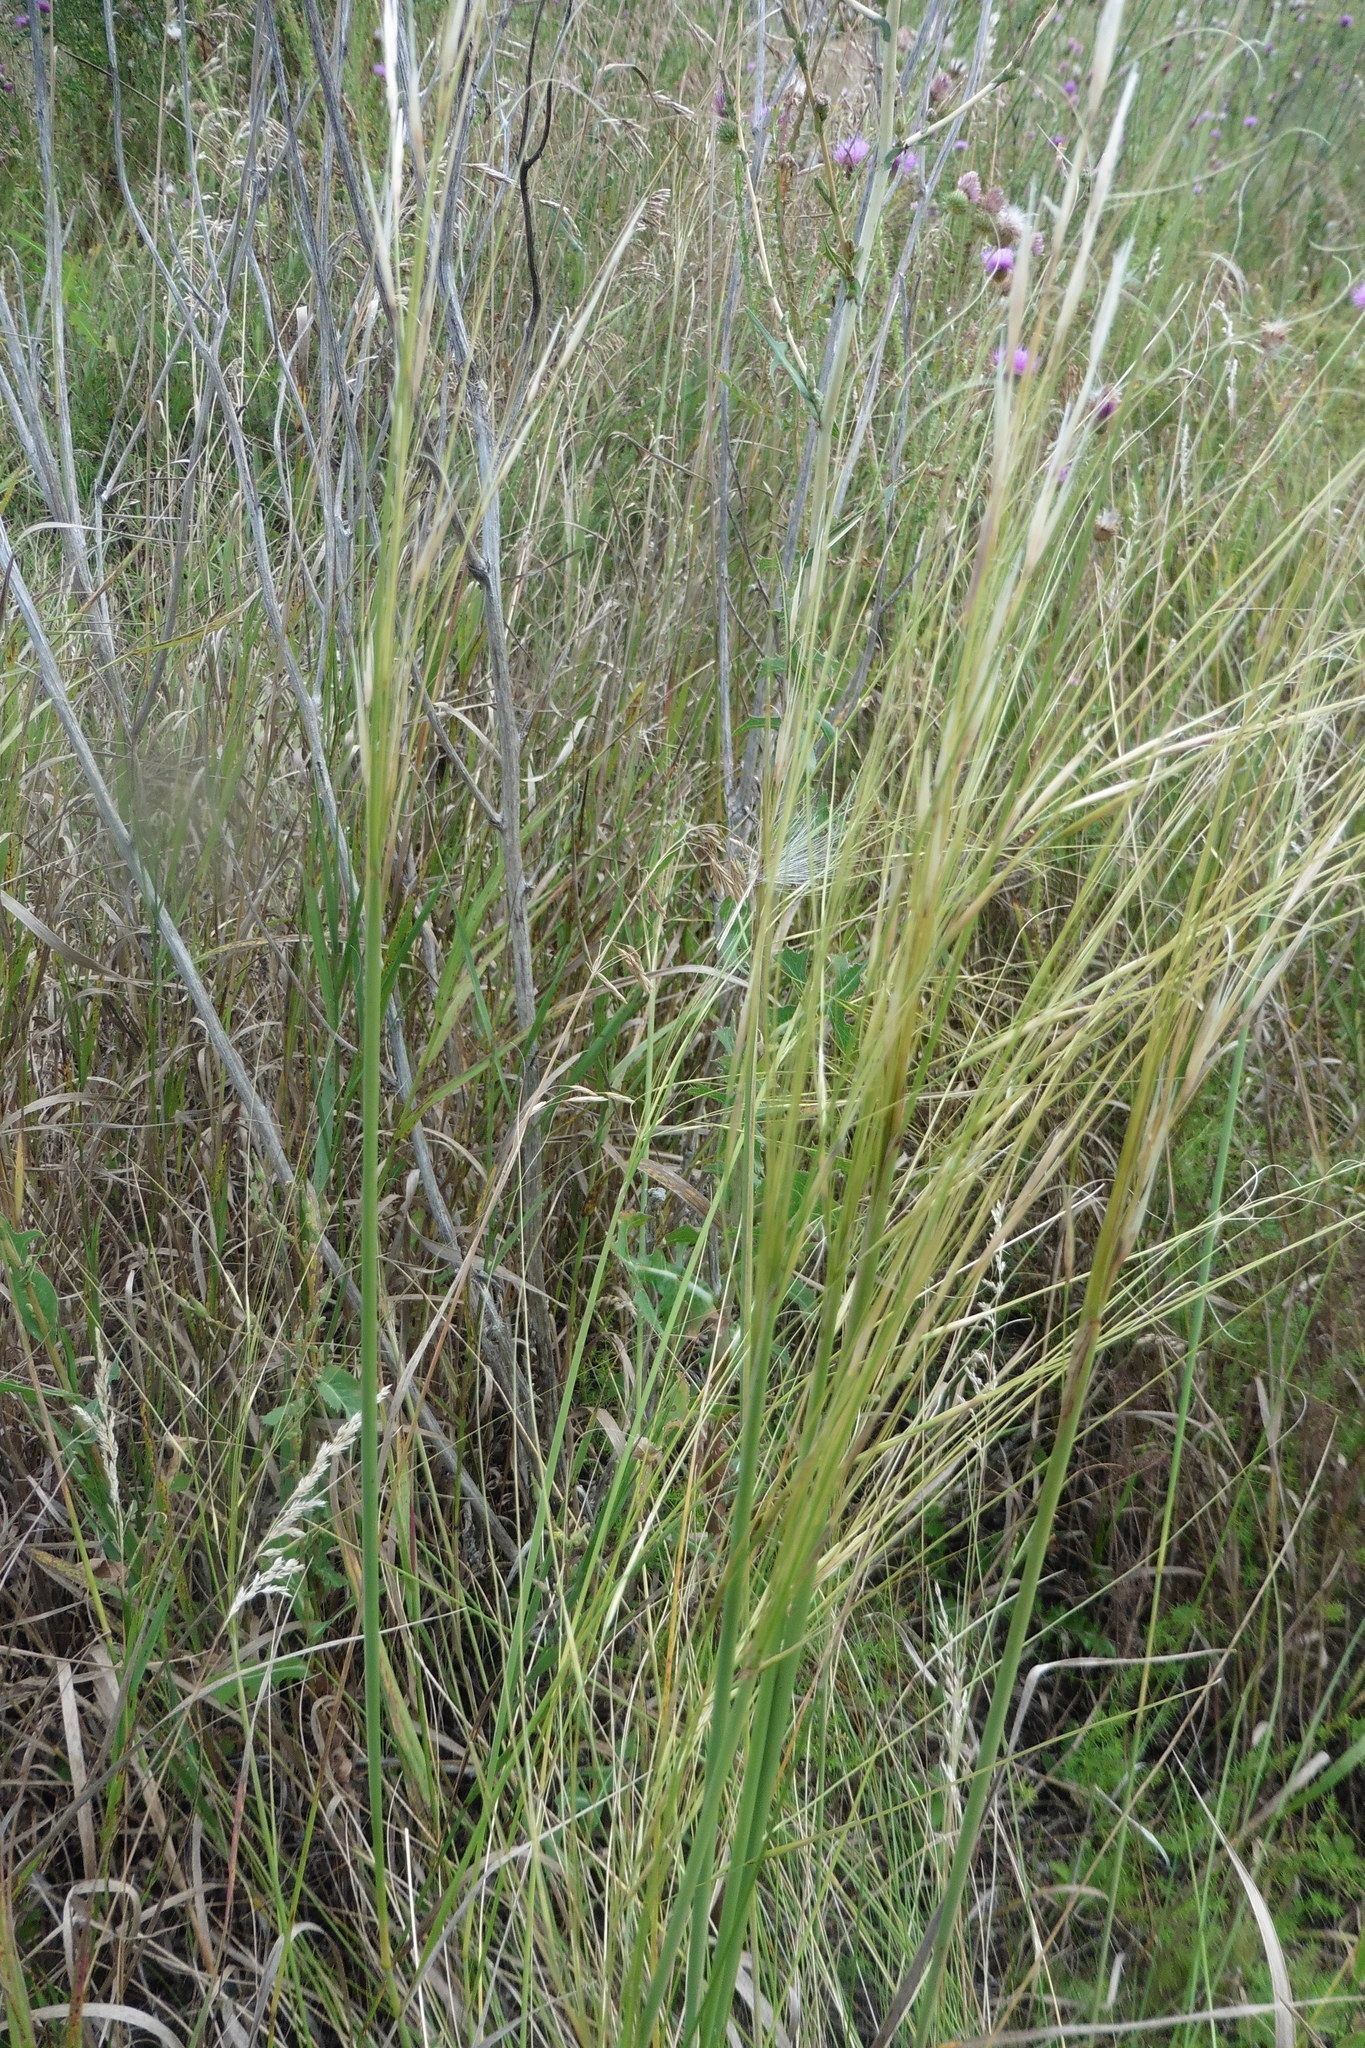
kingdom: Plantae
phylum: Tracheophyta
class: Liliopsida
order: Poales
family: Poaceae
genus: Stipa
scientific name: Stipa capillata
